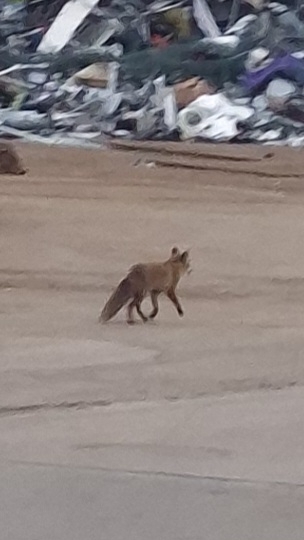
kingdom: Animalia
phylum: Chordata
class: Mammalia
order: Carnivora
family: Canidae
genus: Vulpes
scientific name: Vulpes vulpes
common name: Red fox
